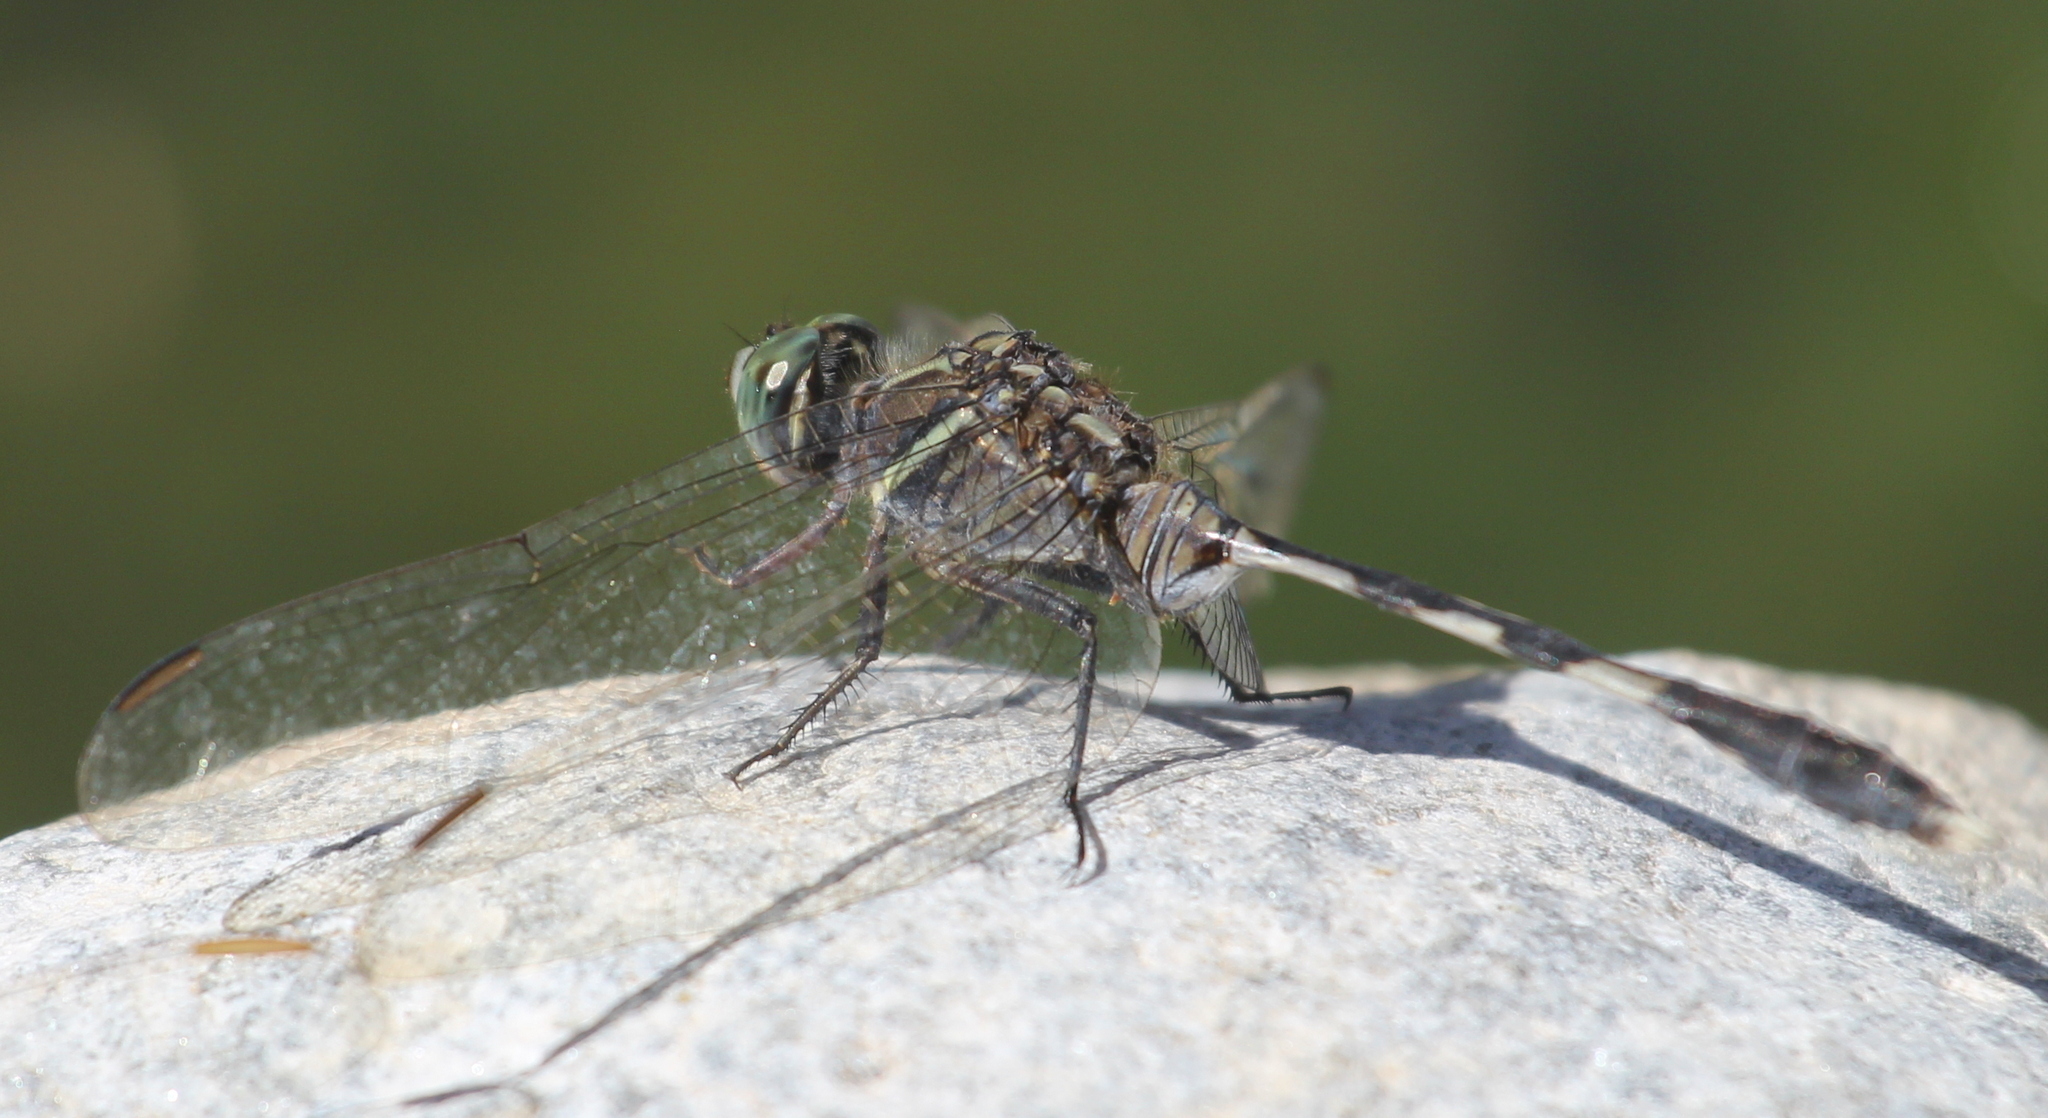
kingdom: Animalia
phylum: Arthropoda
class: Insecta
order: Odonata
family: Libellulidae
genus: Orthetrum
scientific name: Orthetrum sabina
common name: Slender skimmer
